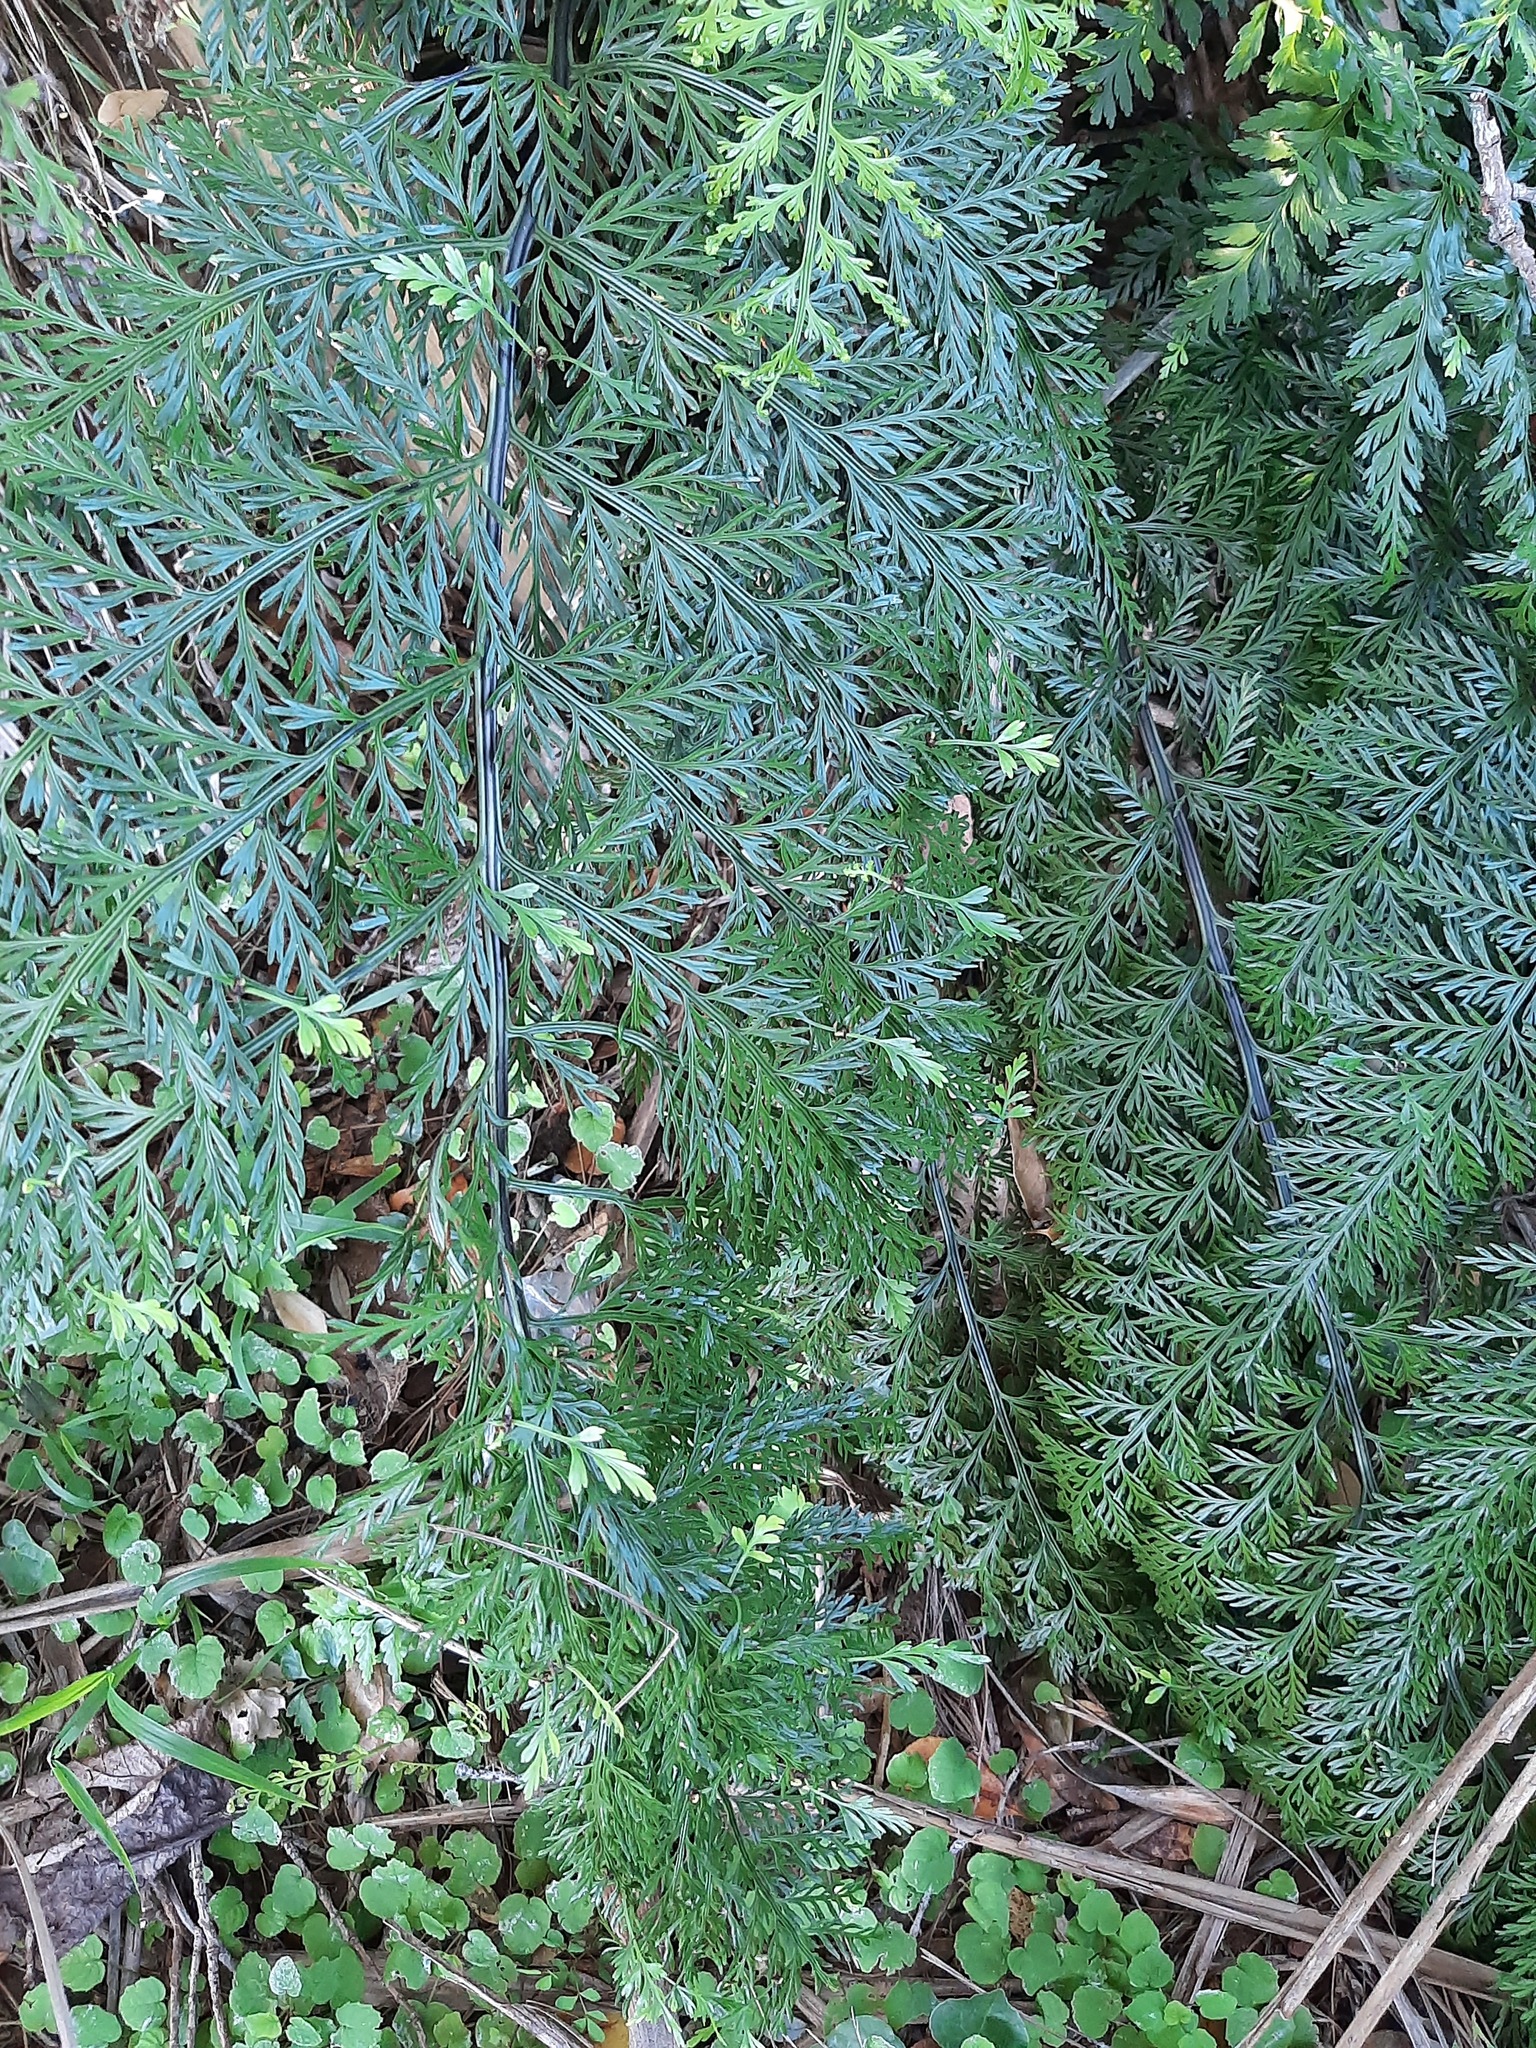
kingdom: Plantae
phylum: Tracheophyta
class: Polypodiopsida
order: Polypodiales
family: Aspleniaceae
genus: Asplenium
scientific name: Asplenium lucrosum
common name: False hen-and-chickens fern
